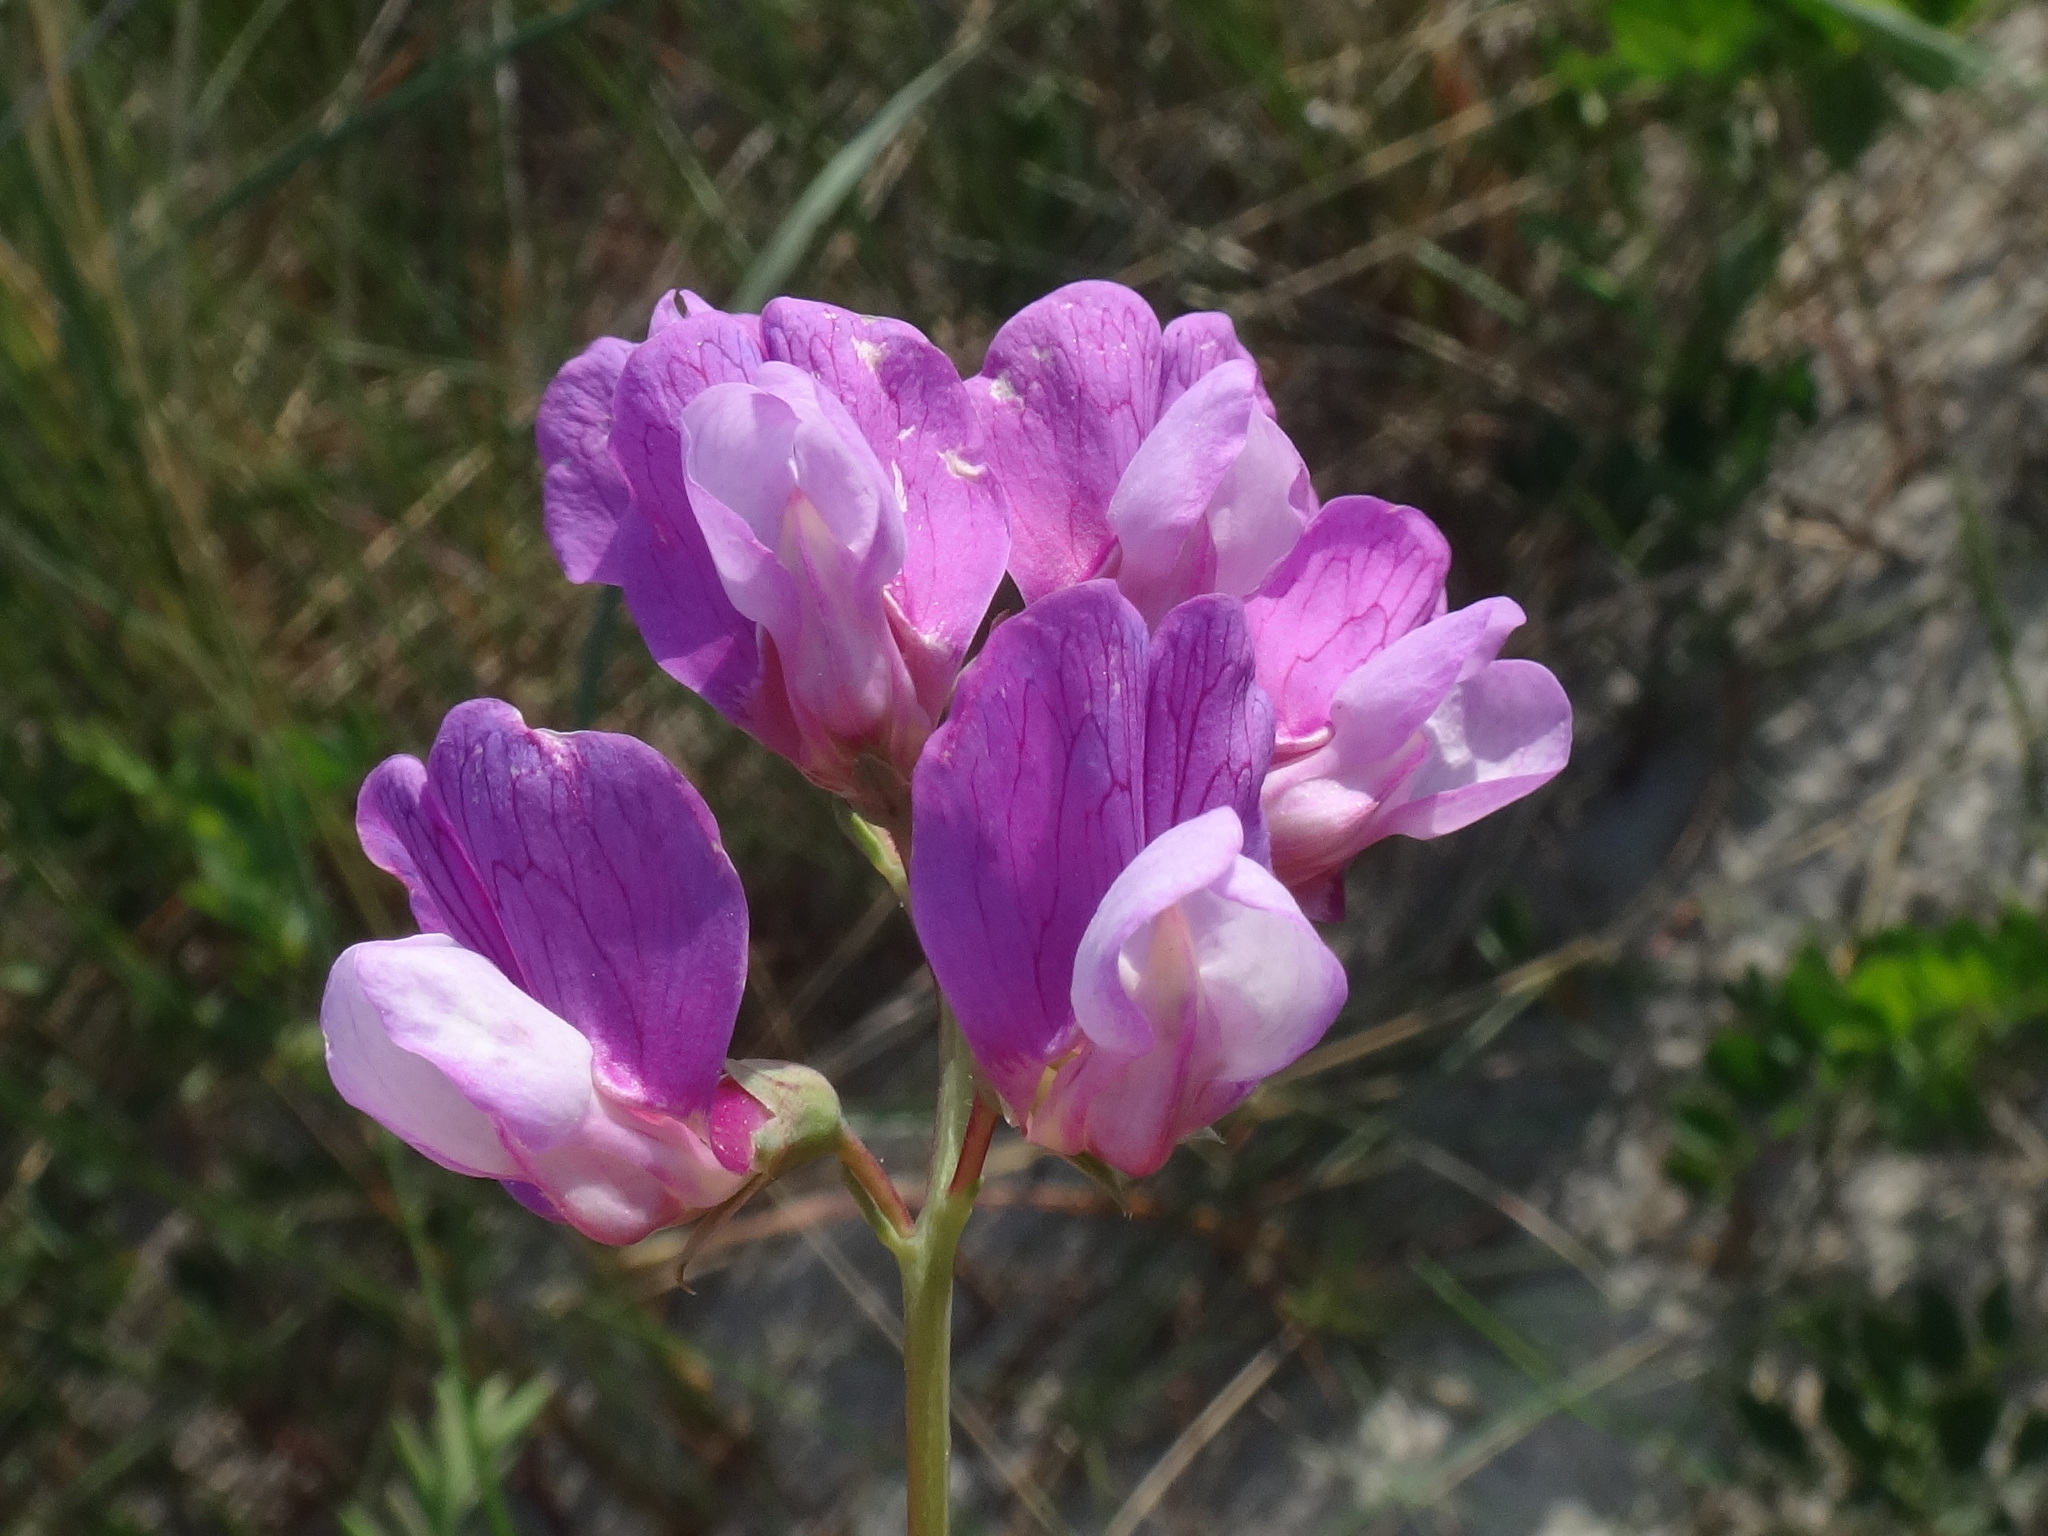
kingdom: Plantae
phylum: Tracheophyta
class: Magnoliopsida
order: Fabales
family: Fabaceae
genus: Lathyrus
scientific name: Lathyrus japonicus
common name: Sea pea
